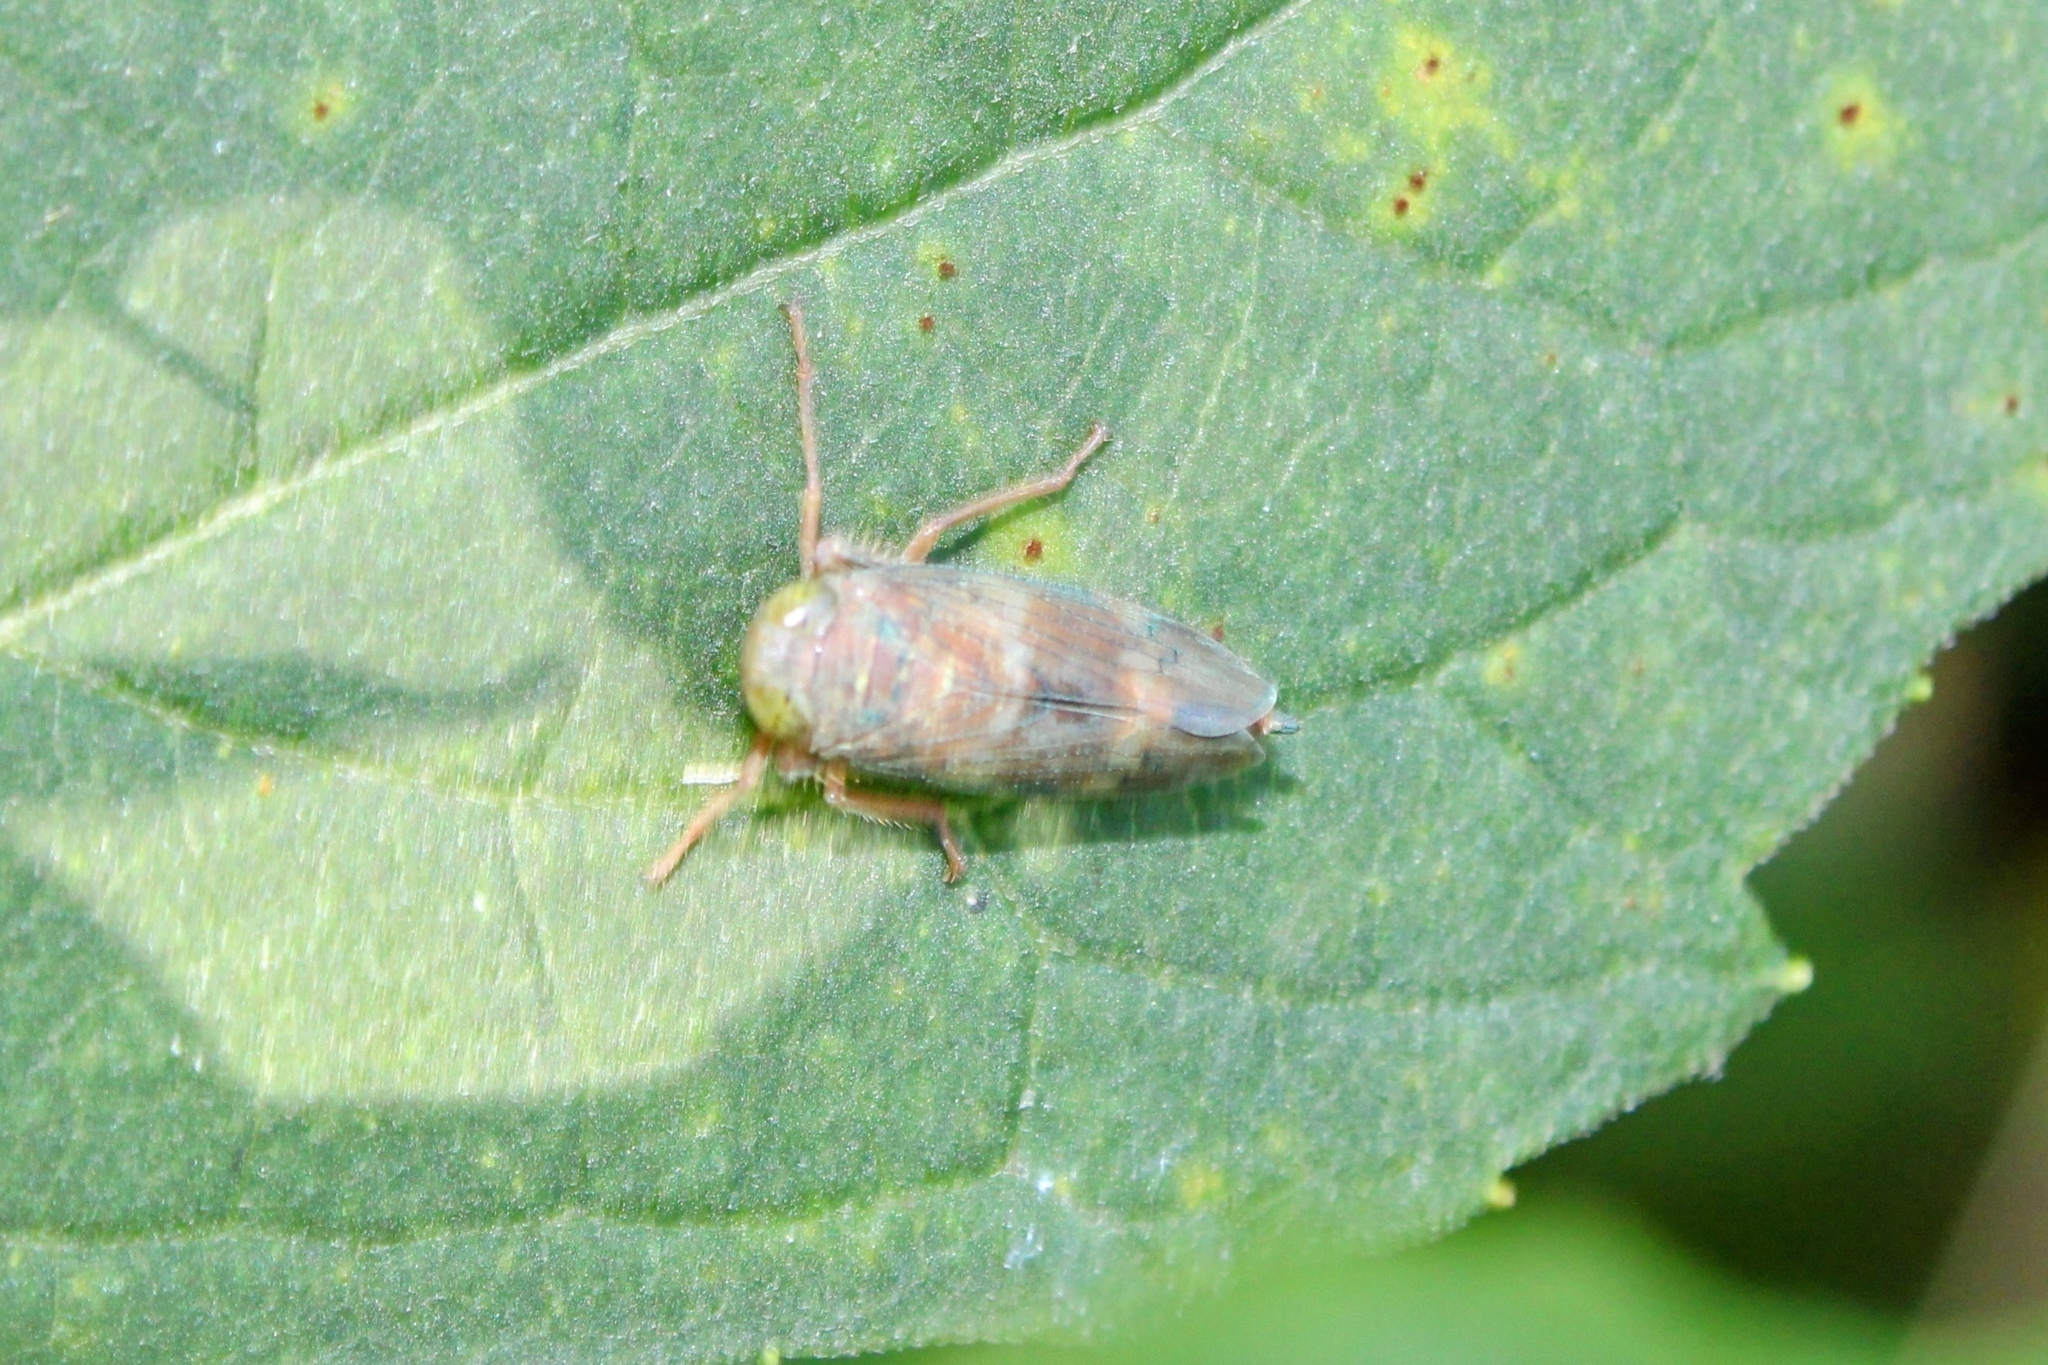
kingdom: Animalia
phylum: Arthropoda
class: Insecta
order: Hemiptera
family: Cicadellidae
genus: Jikradia
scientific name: Jikradia olitoria
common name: Coppery leafhopper
